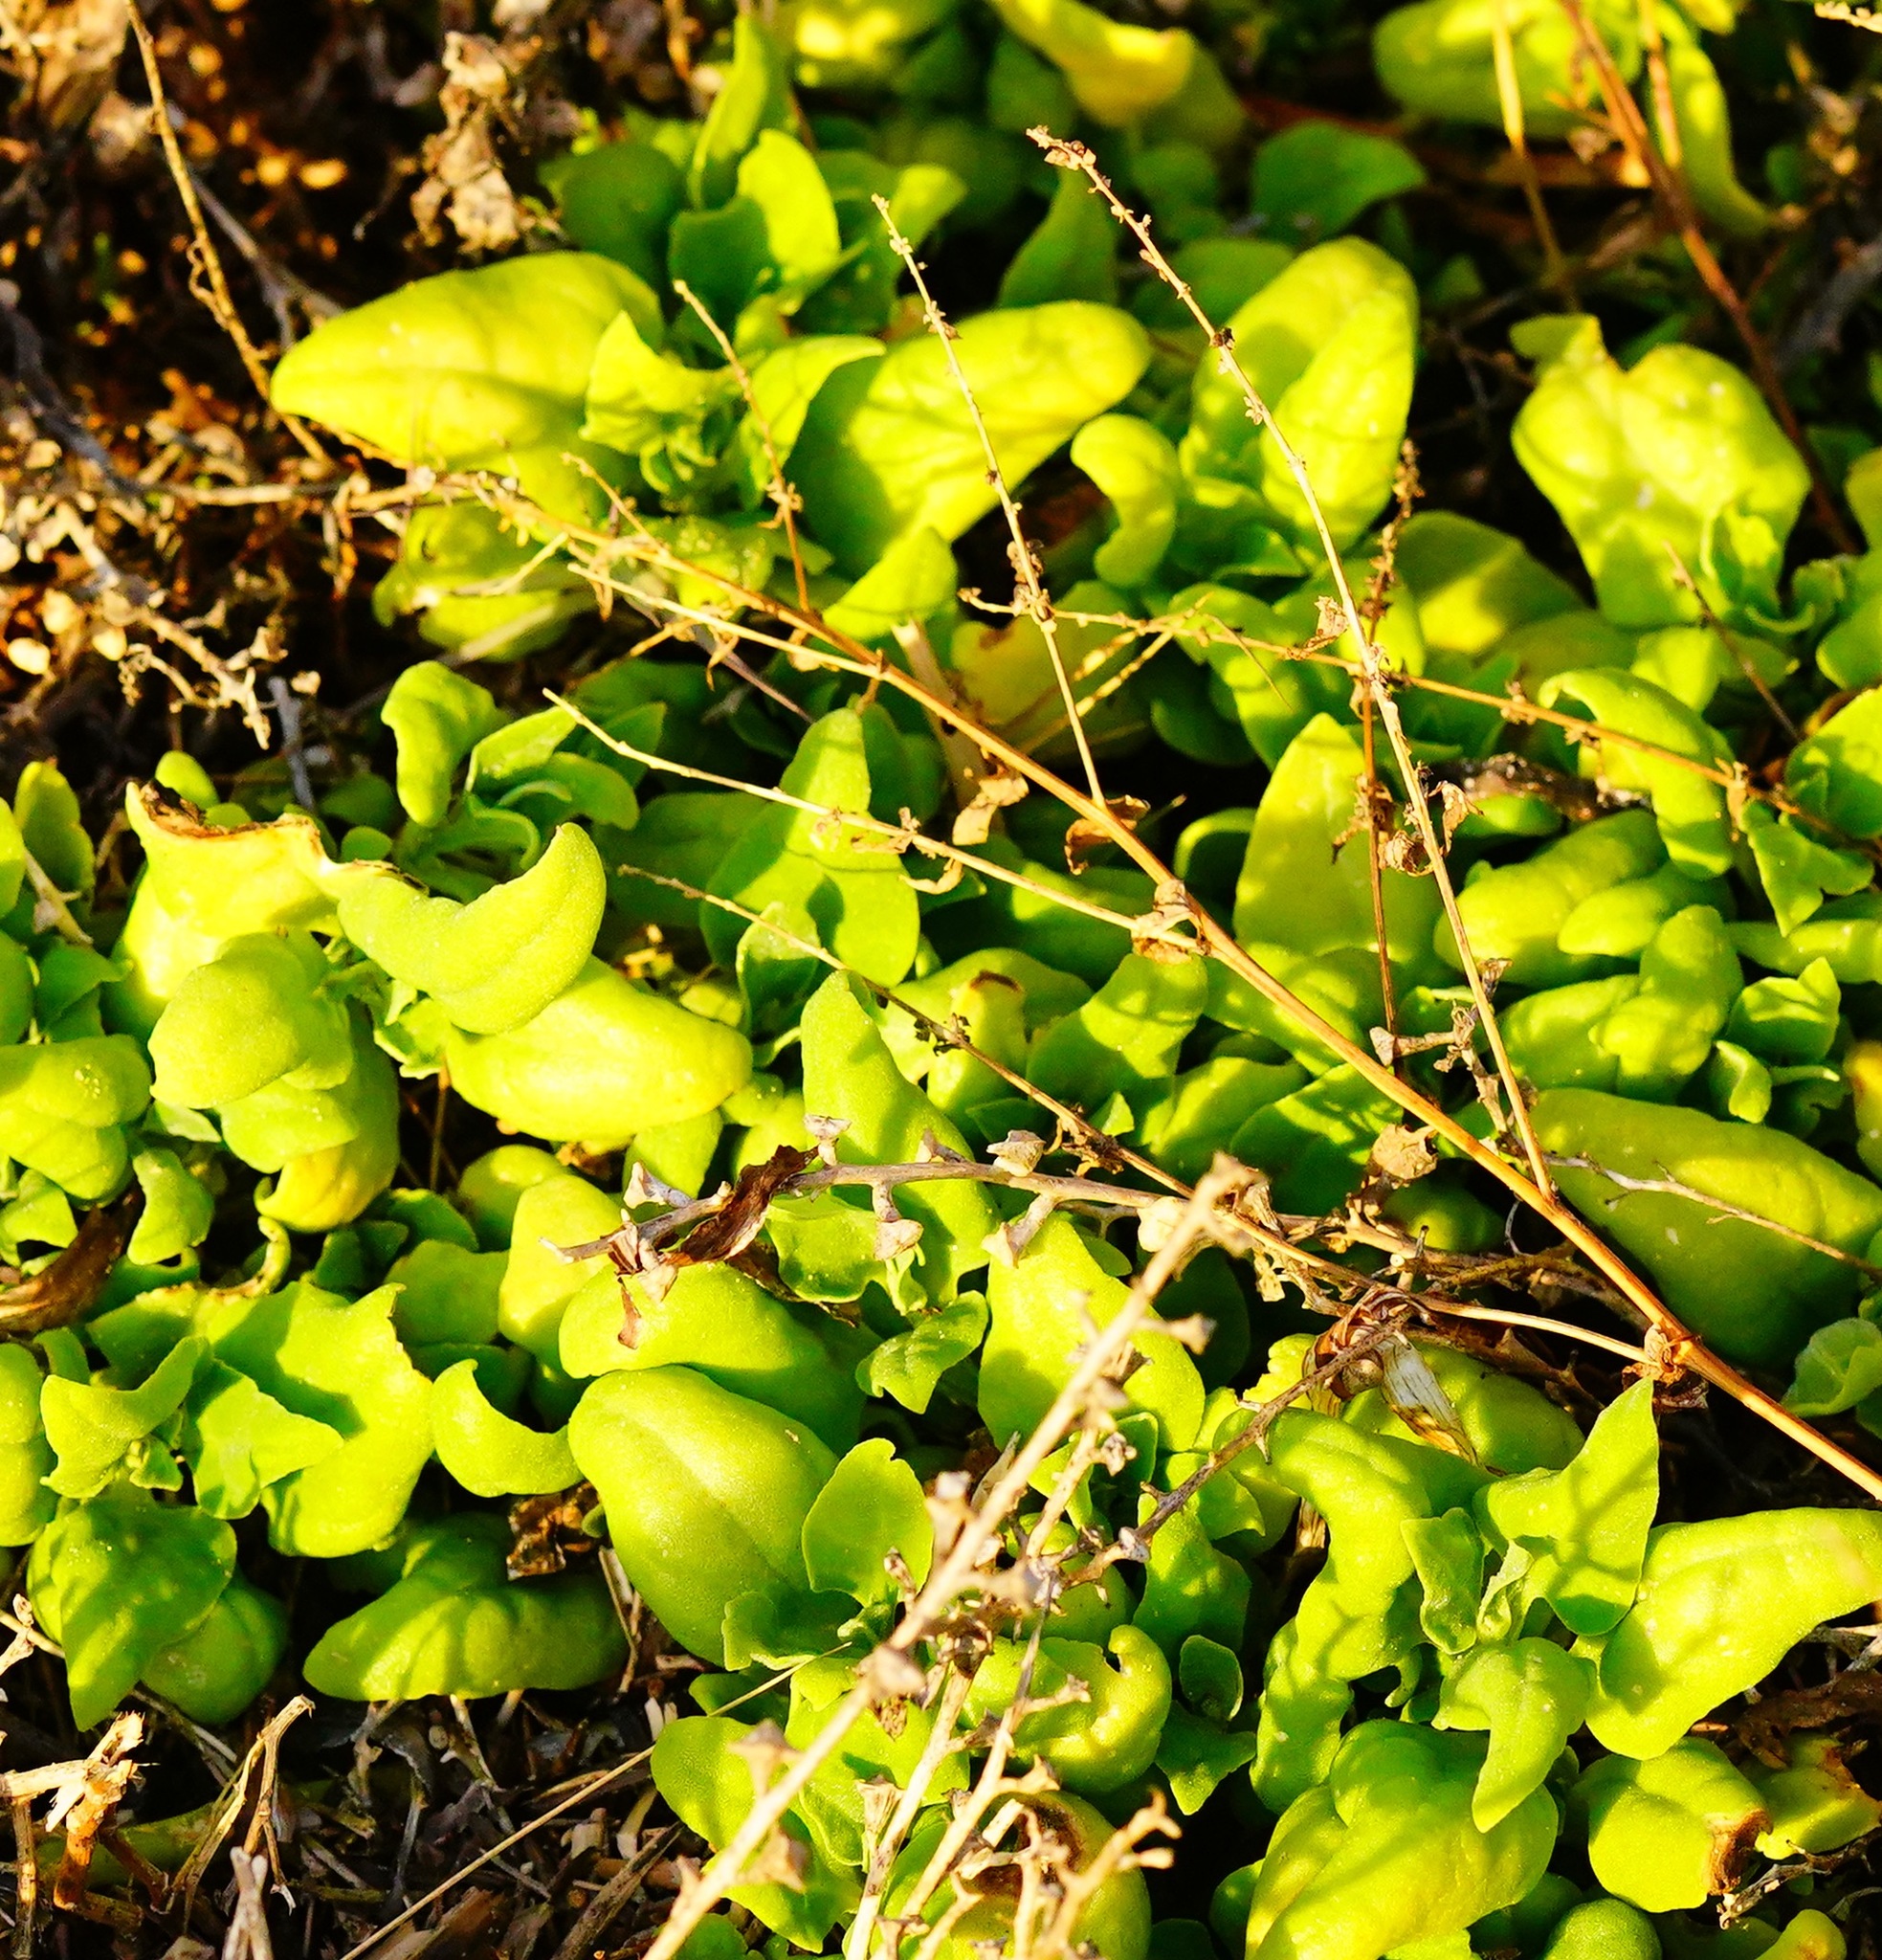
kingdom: Plantae
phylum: Tracheophyta
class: Magnoliopsida
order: Caryophyllales
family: Aizoaceae
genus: Tetragonia
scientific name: Tetragonia tetragonoides
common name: New zealand-spinach
